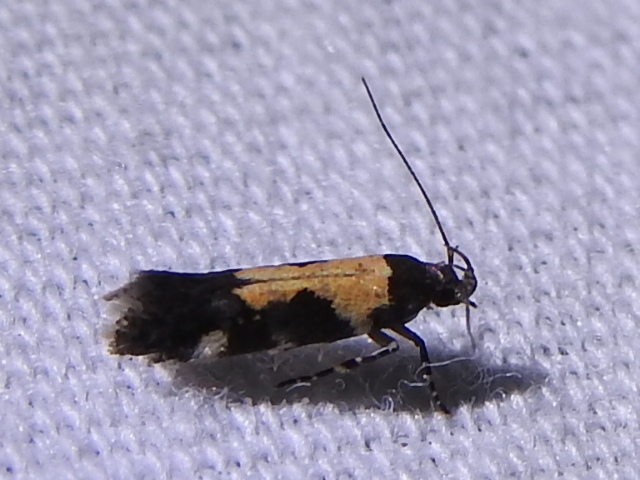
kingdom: Animalia
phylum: Arthropoda
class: Insecta
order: Lepidoptera
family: Gelechiidae
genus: Stegasta
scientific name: Stegasta bosqueella
